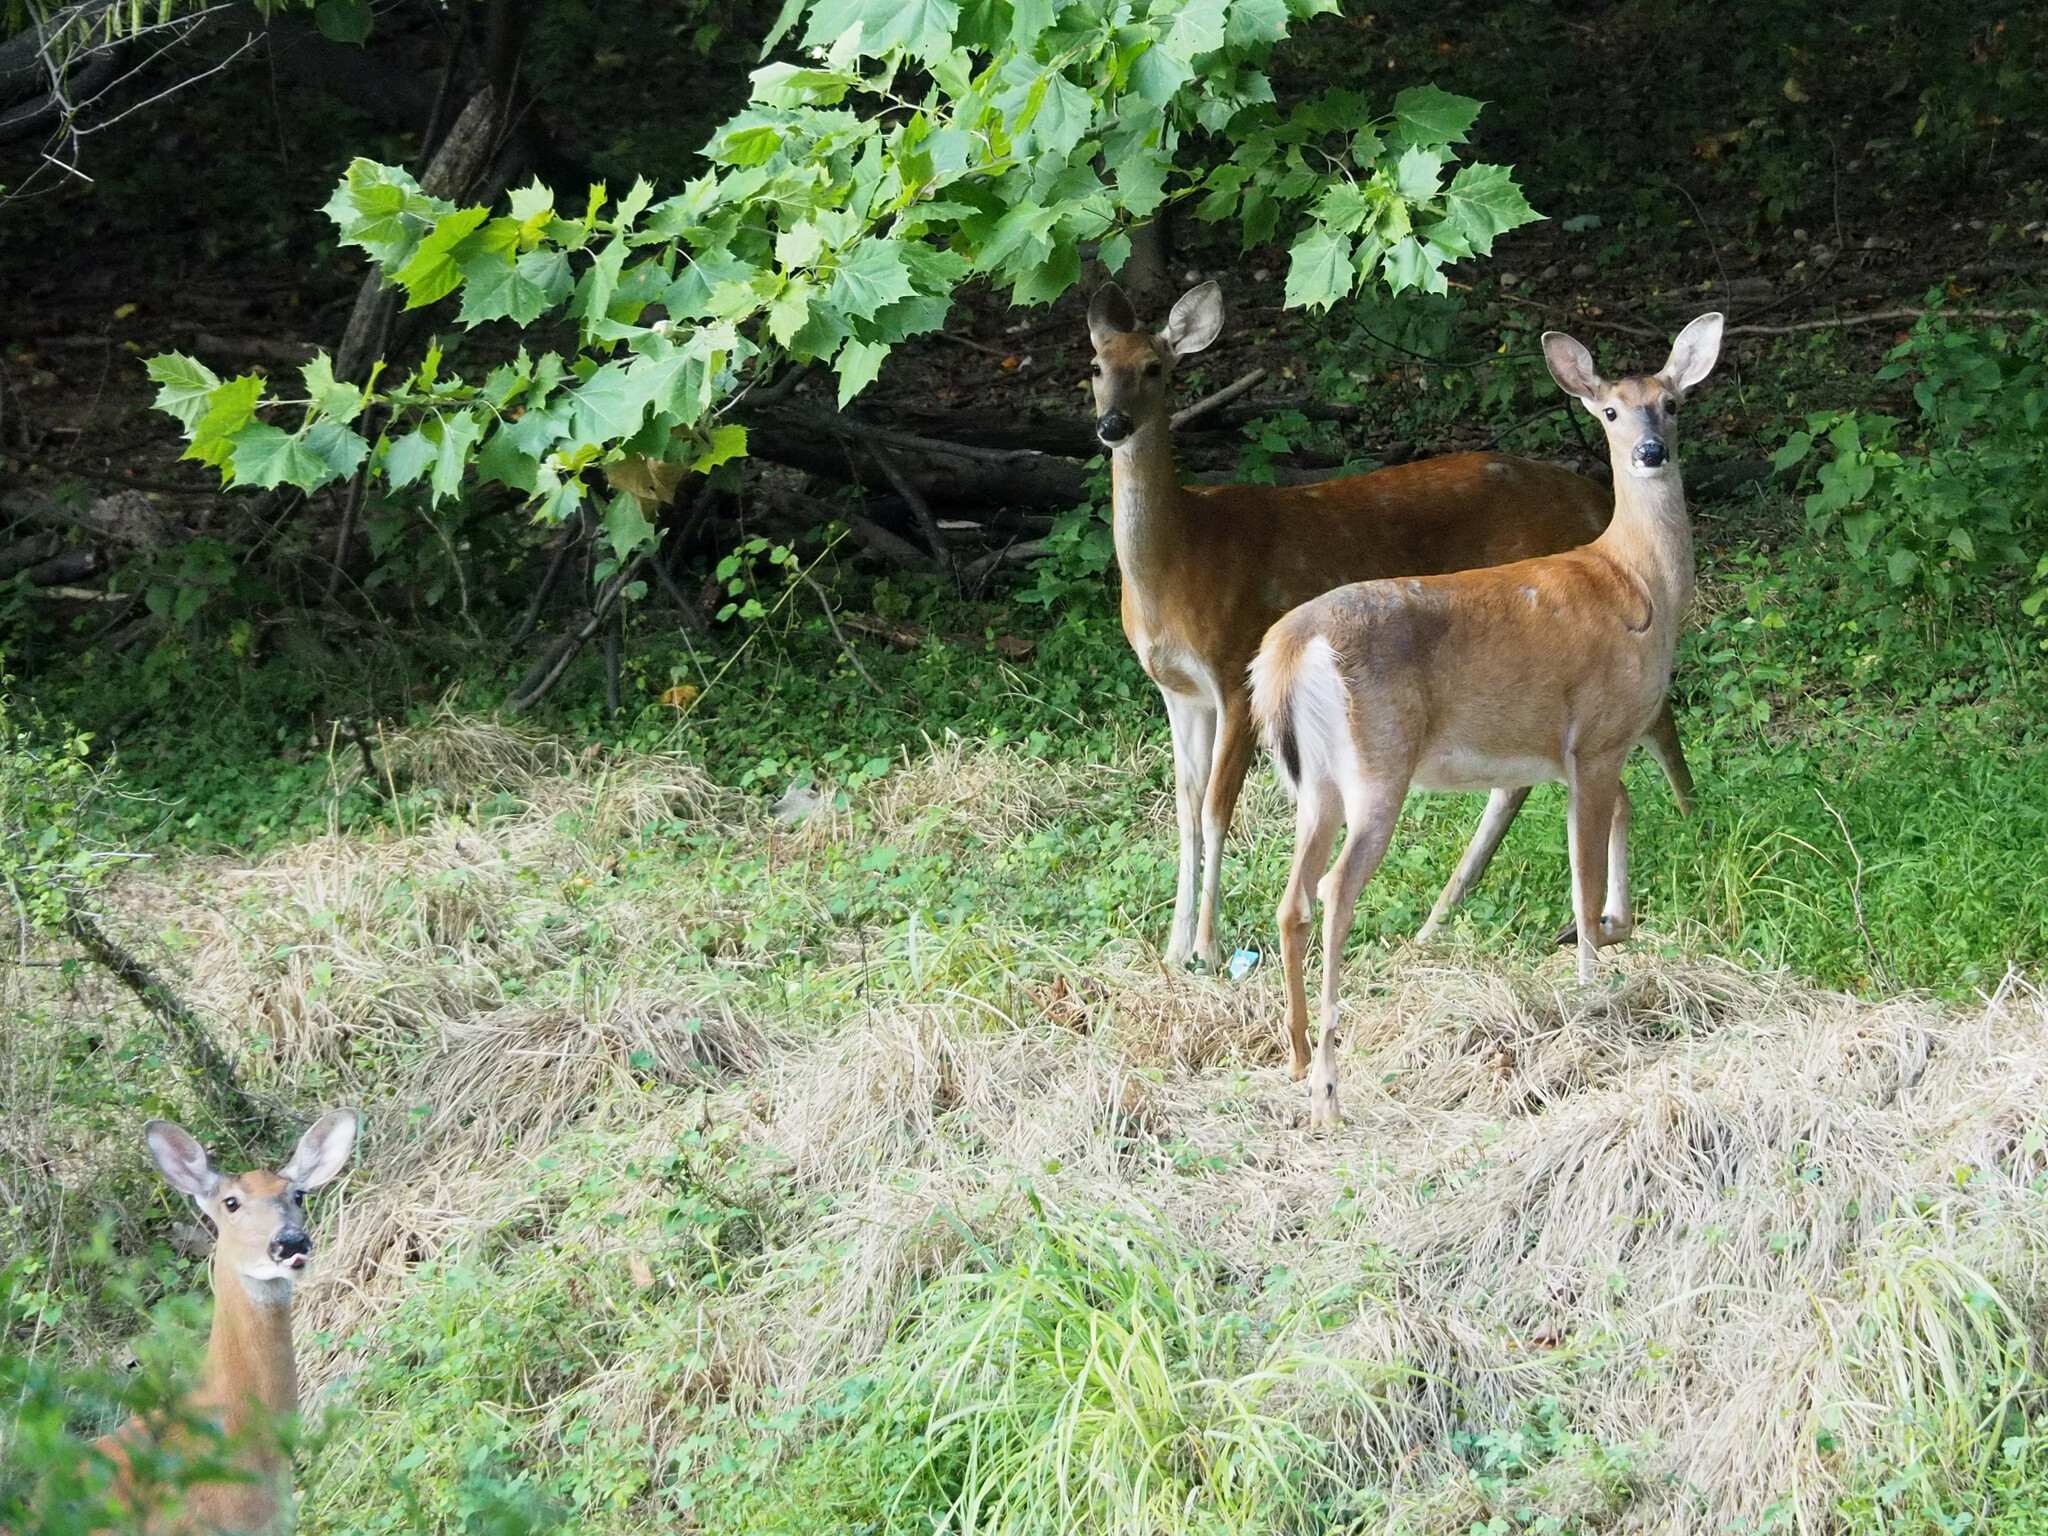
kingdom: Animalia
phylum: Chordata
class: Mammalia
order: Artiodactyla
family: Cervidae
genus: Odocoileus
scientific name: Odocoileus virginianus
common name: White-tailed deer
